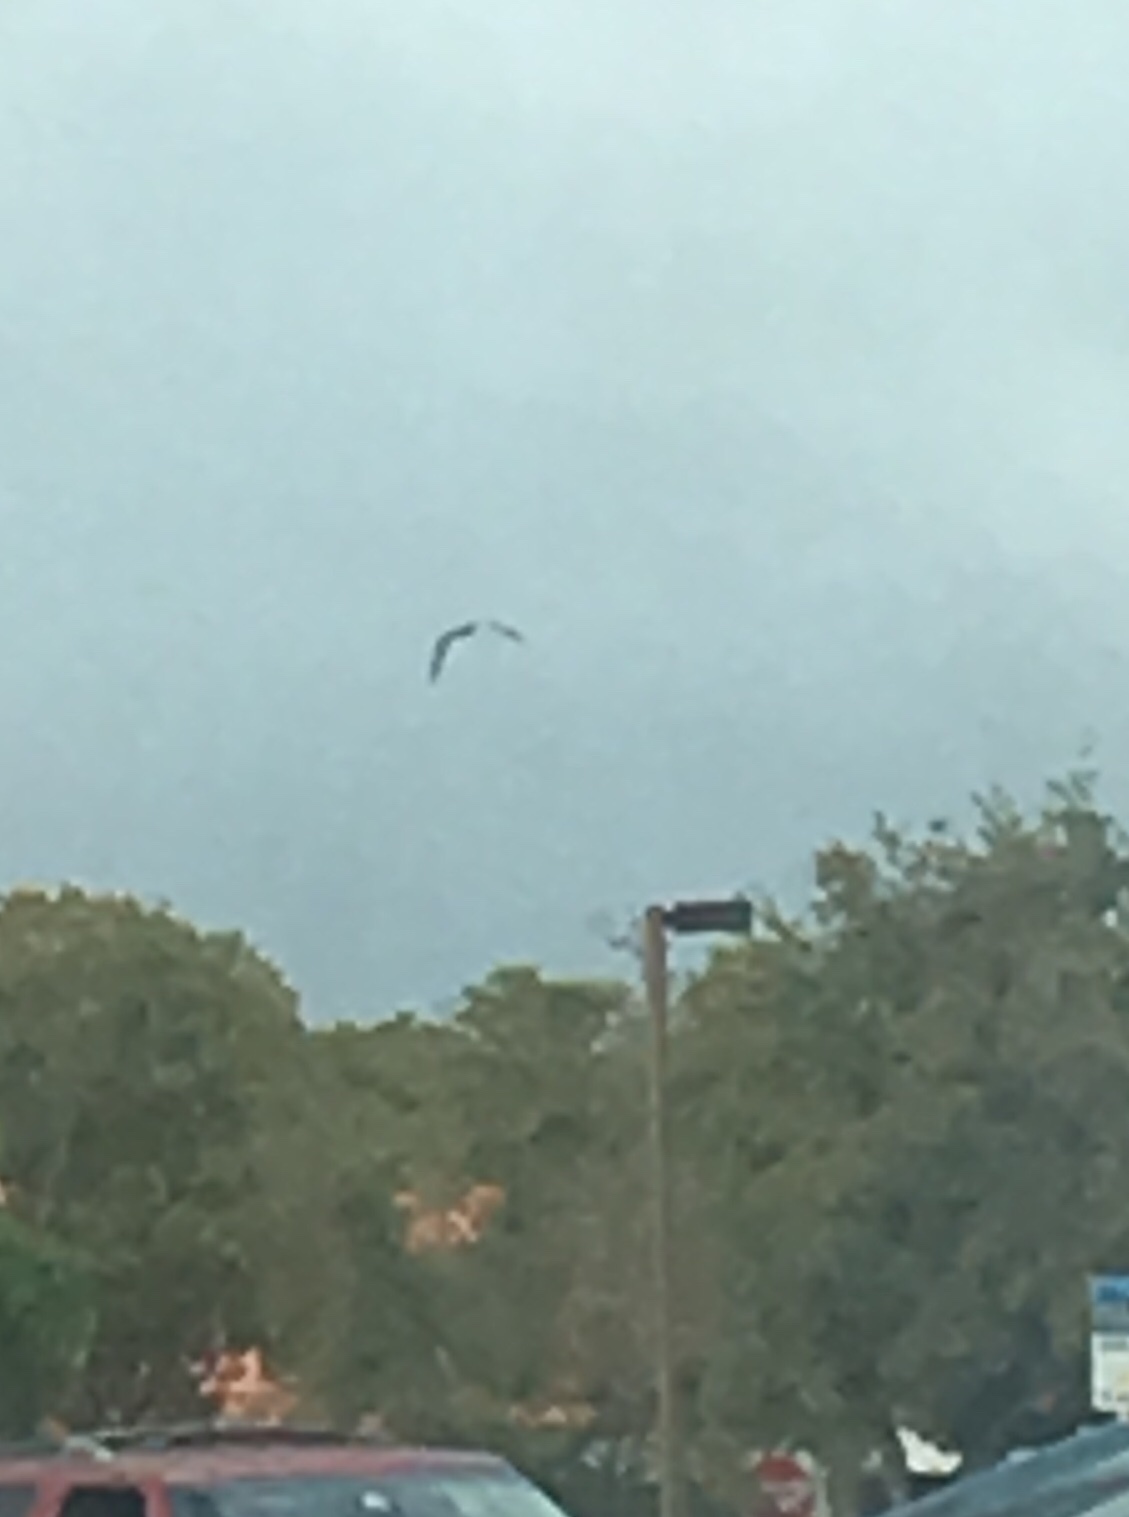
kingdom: Animalia
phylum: Chordata
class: Aves
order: Pelecaniformes
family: Pelecanidae
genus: Pelecanus
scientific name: Pelecanus occidentalis
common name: Brown pelican
